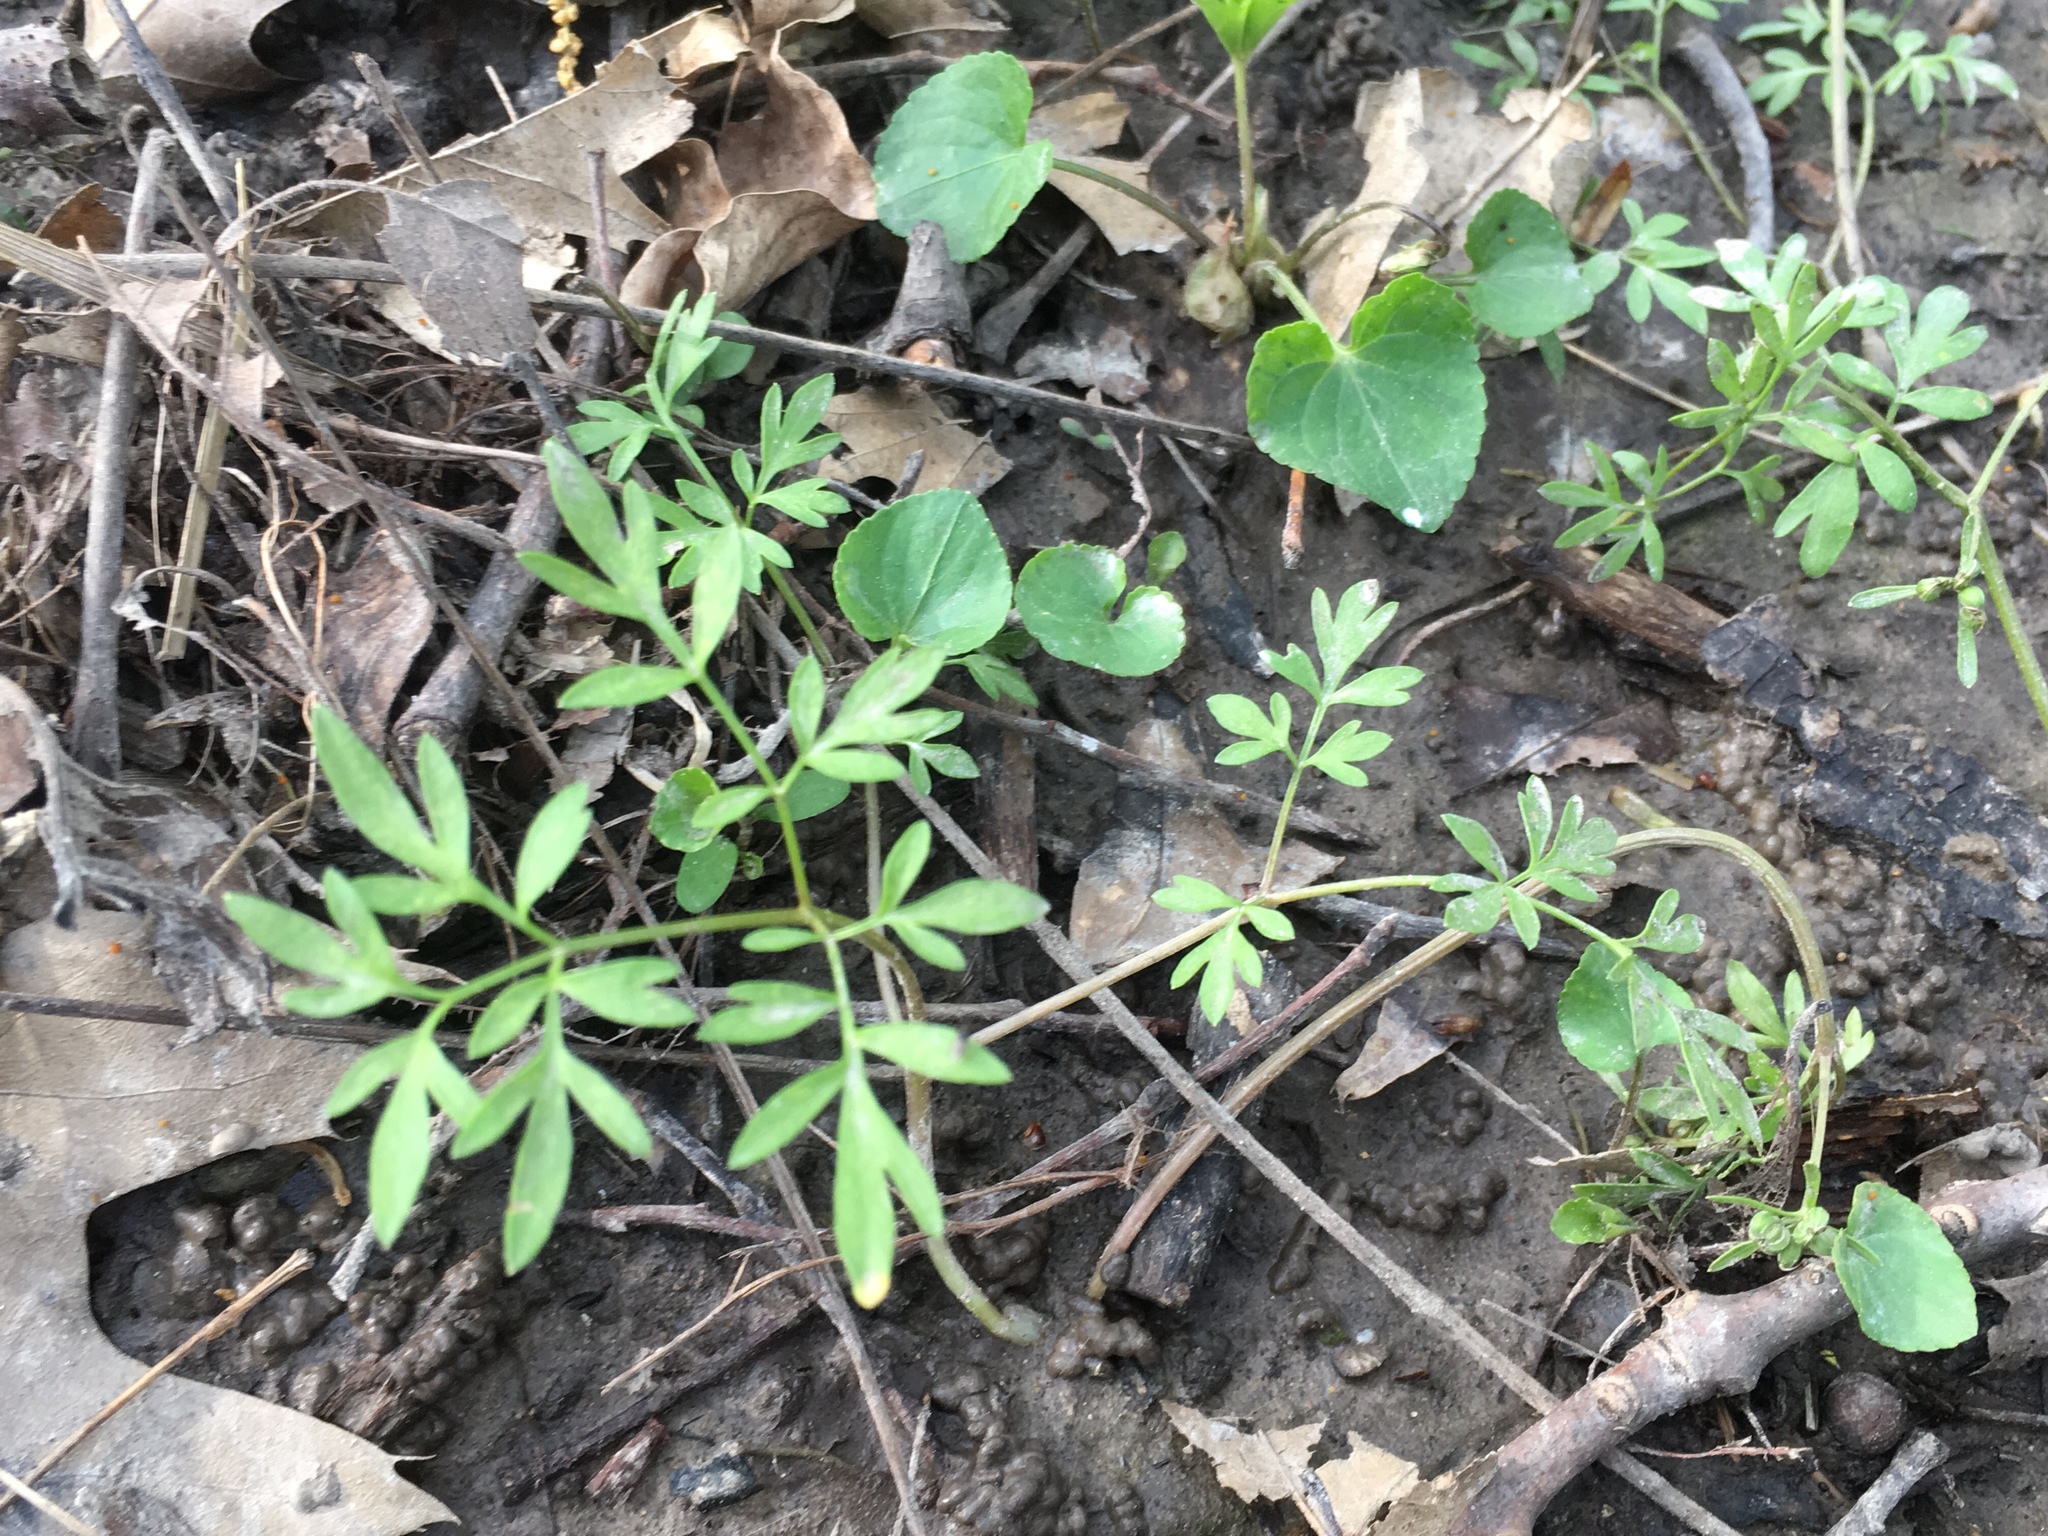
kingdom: Plantae
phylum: Tracheophyta
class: Magnoliopsida
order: Apiales
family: Apiaceae
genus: Erigenia
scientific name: Erigenia bulbosa
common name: Pepper-and-salt
